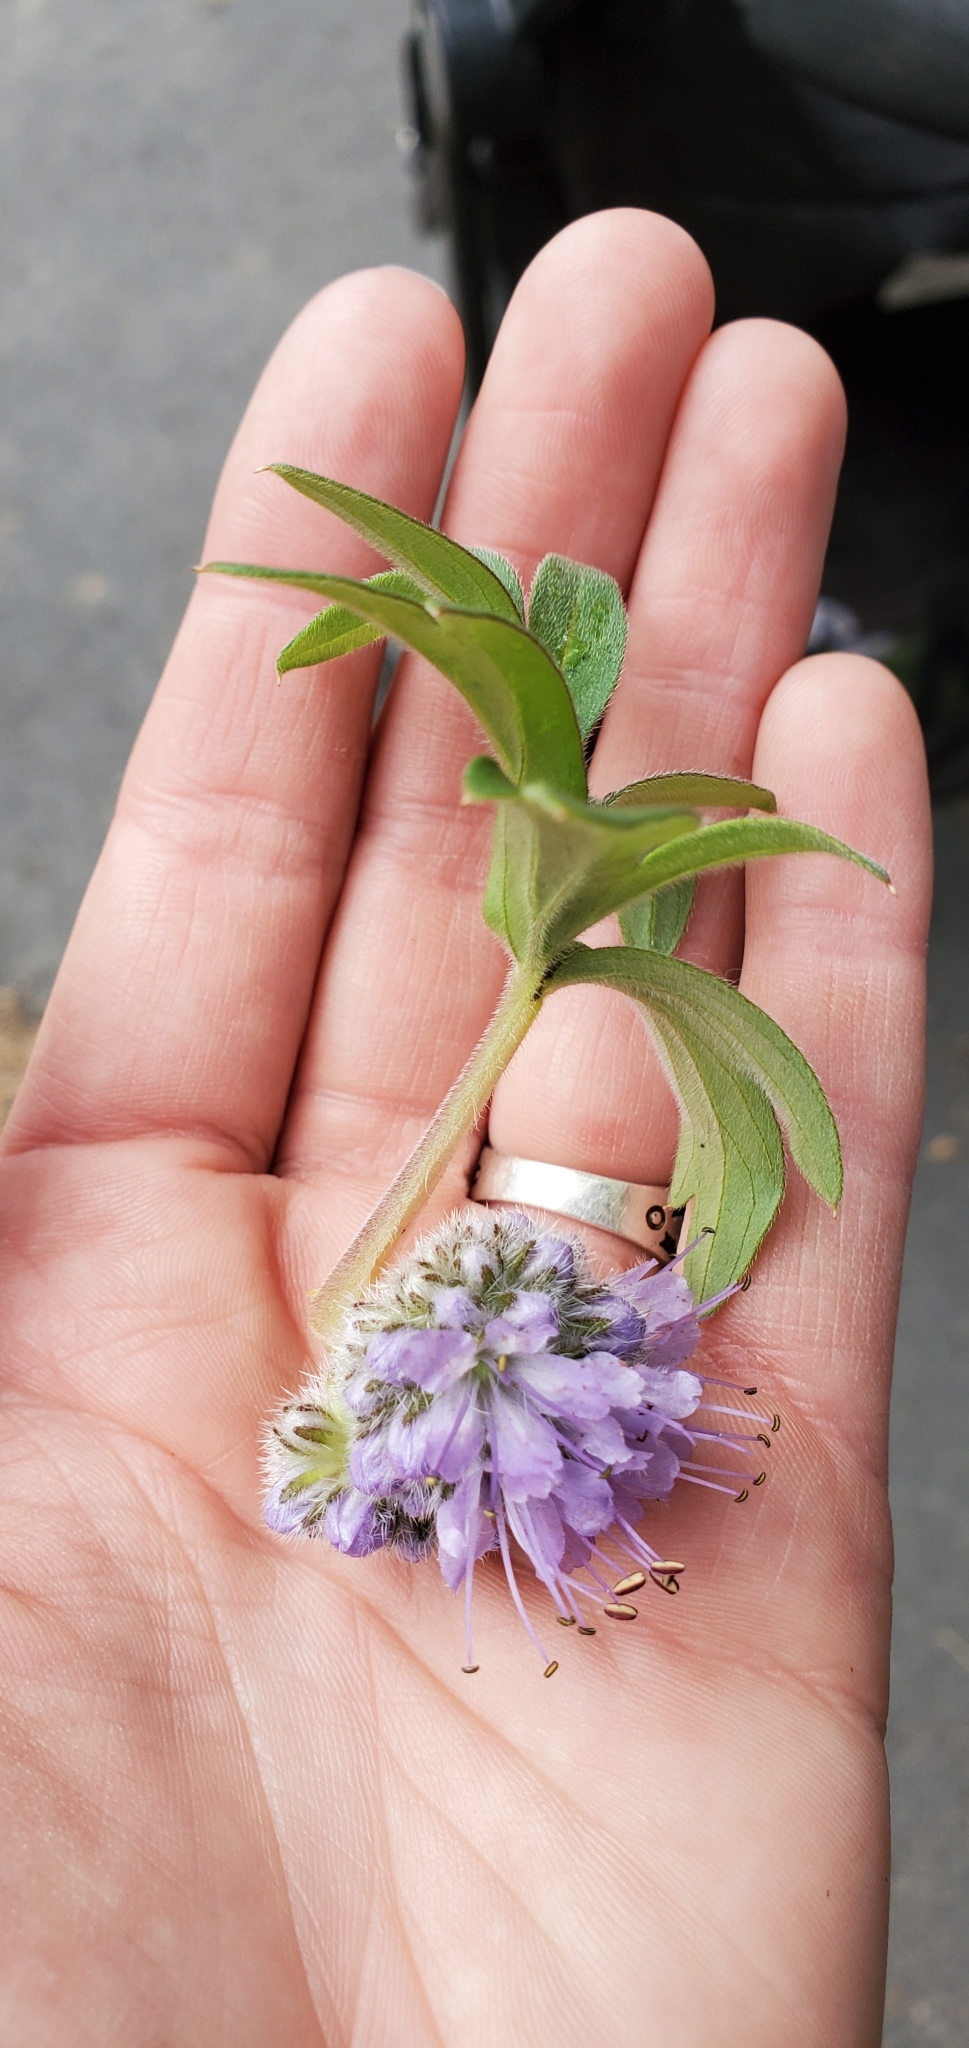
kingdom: Plantae
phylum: Tracheophyta
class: Magnoliopsida
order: Boraginales
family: Hydrophyllaceae
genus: Hydrophyllum
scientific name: Hydrophyllum capitatum
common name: Woollen-breeches
